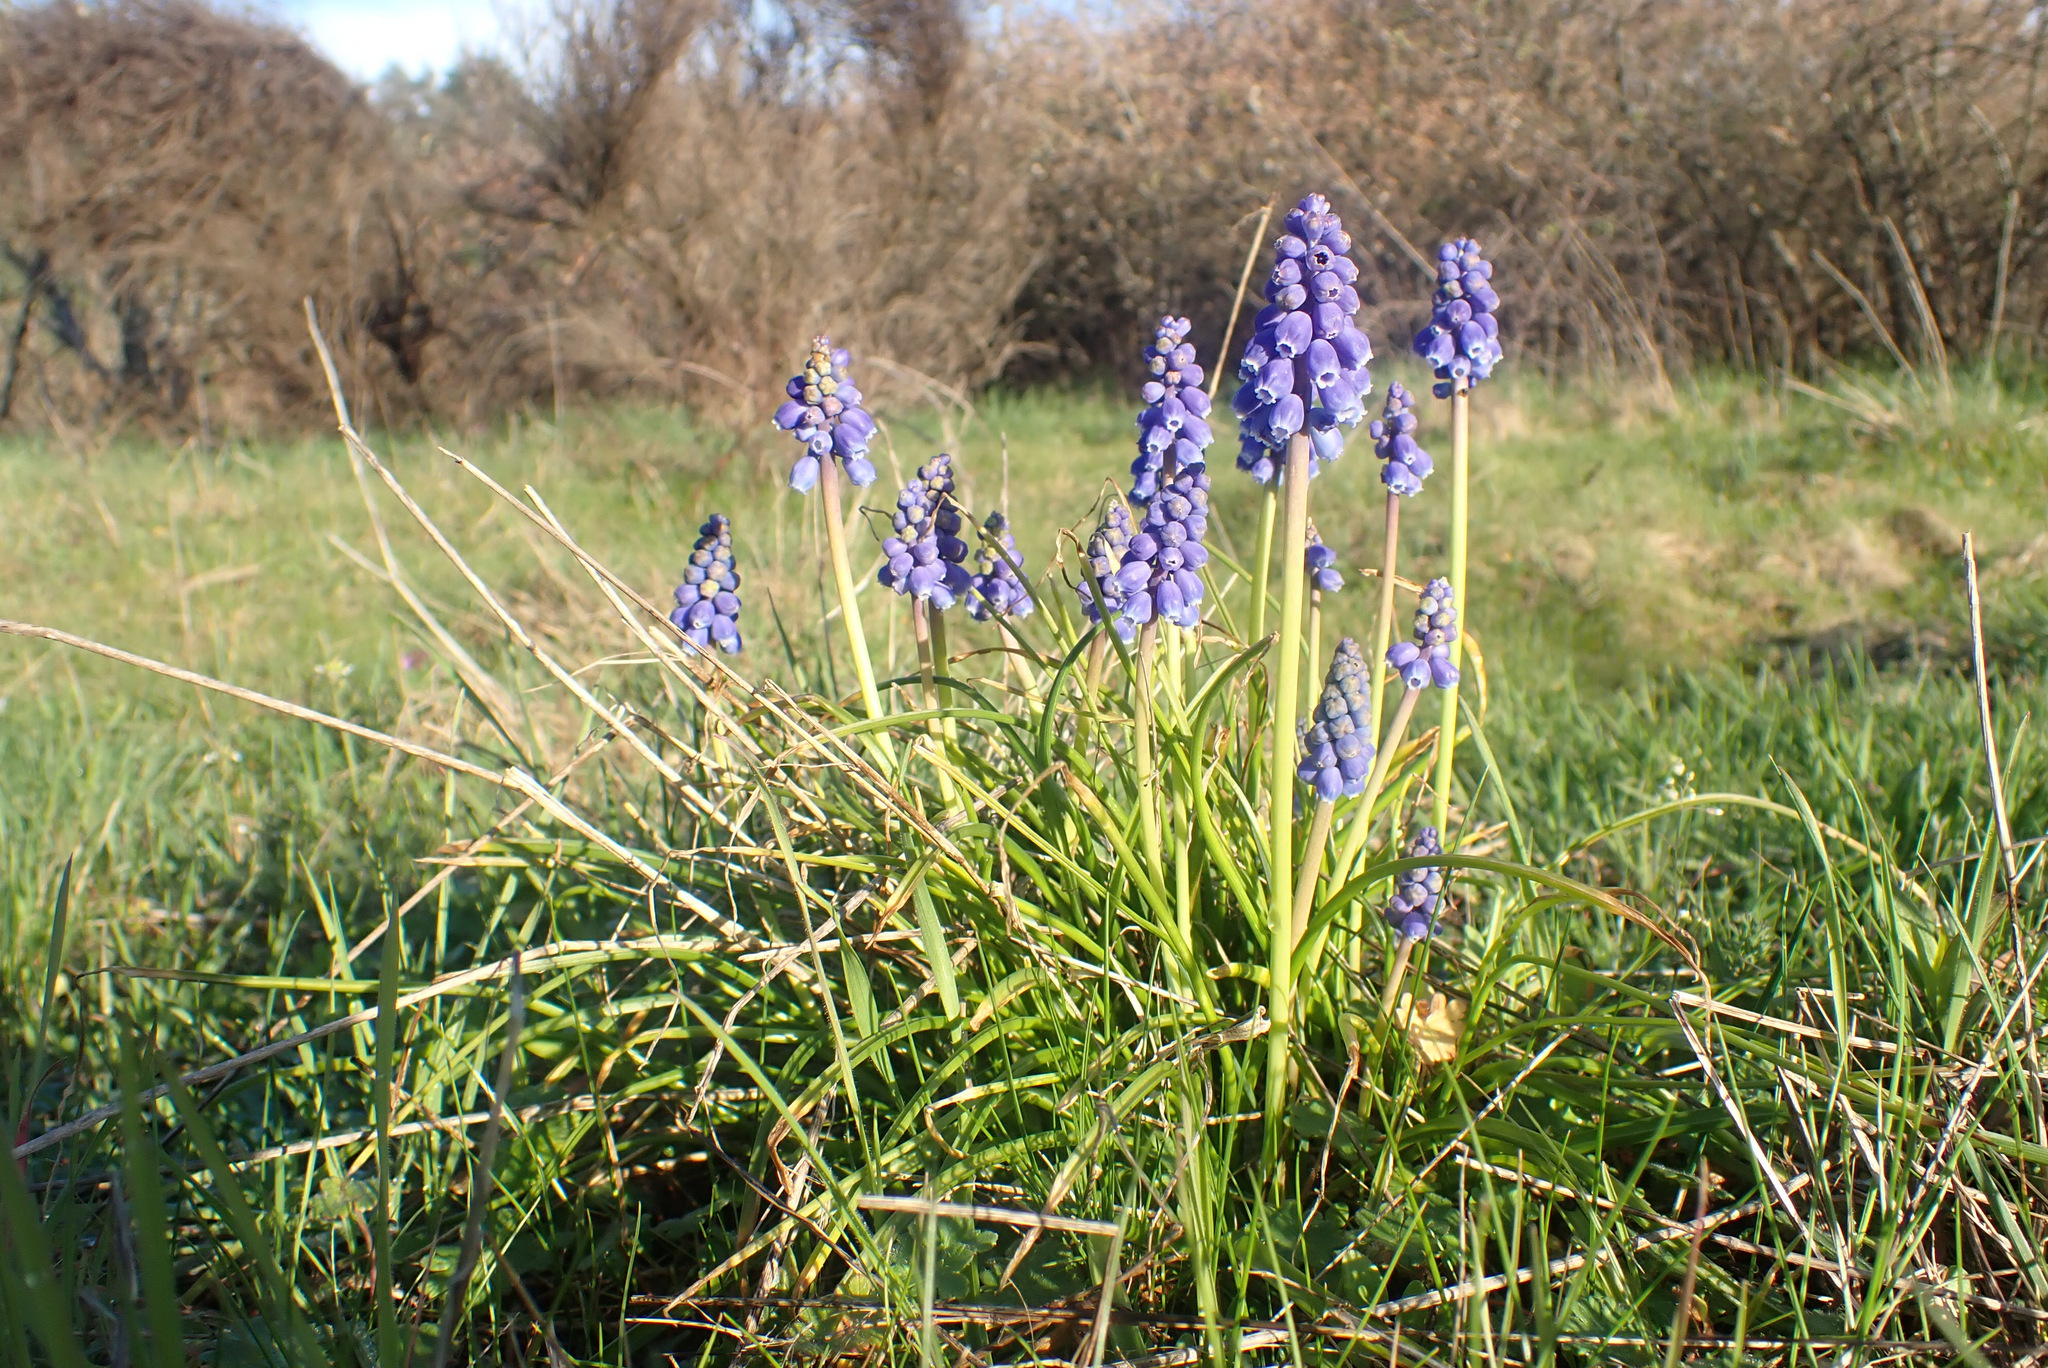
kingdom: Plantae
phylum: Tracheophyta
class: Liliopsida
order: Asparagales
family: Asparagaceae
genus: Muscari
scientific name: Muscari armeniacum
